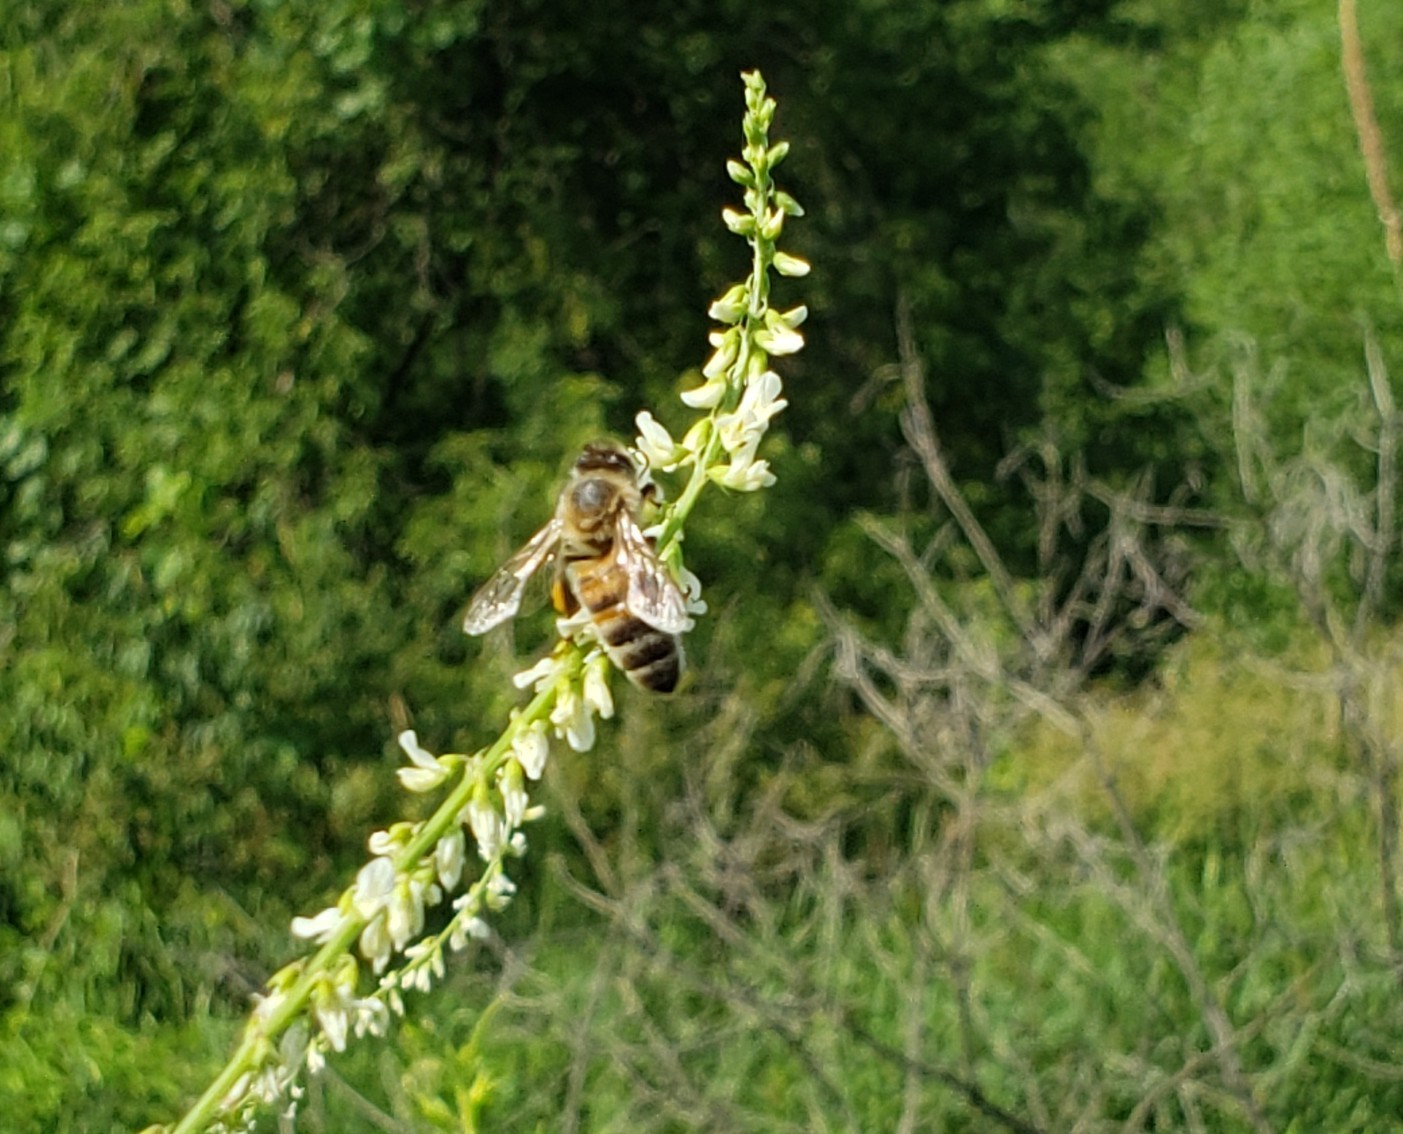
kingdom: Animalia
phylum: Arthropoda
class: Insecta
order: Hymenoptera
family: Apidae
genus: Apis
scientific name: Apis mellifera
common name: Honey bee
